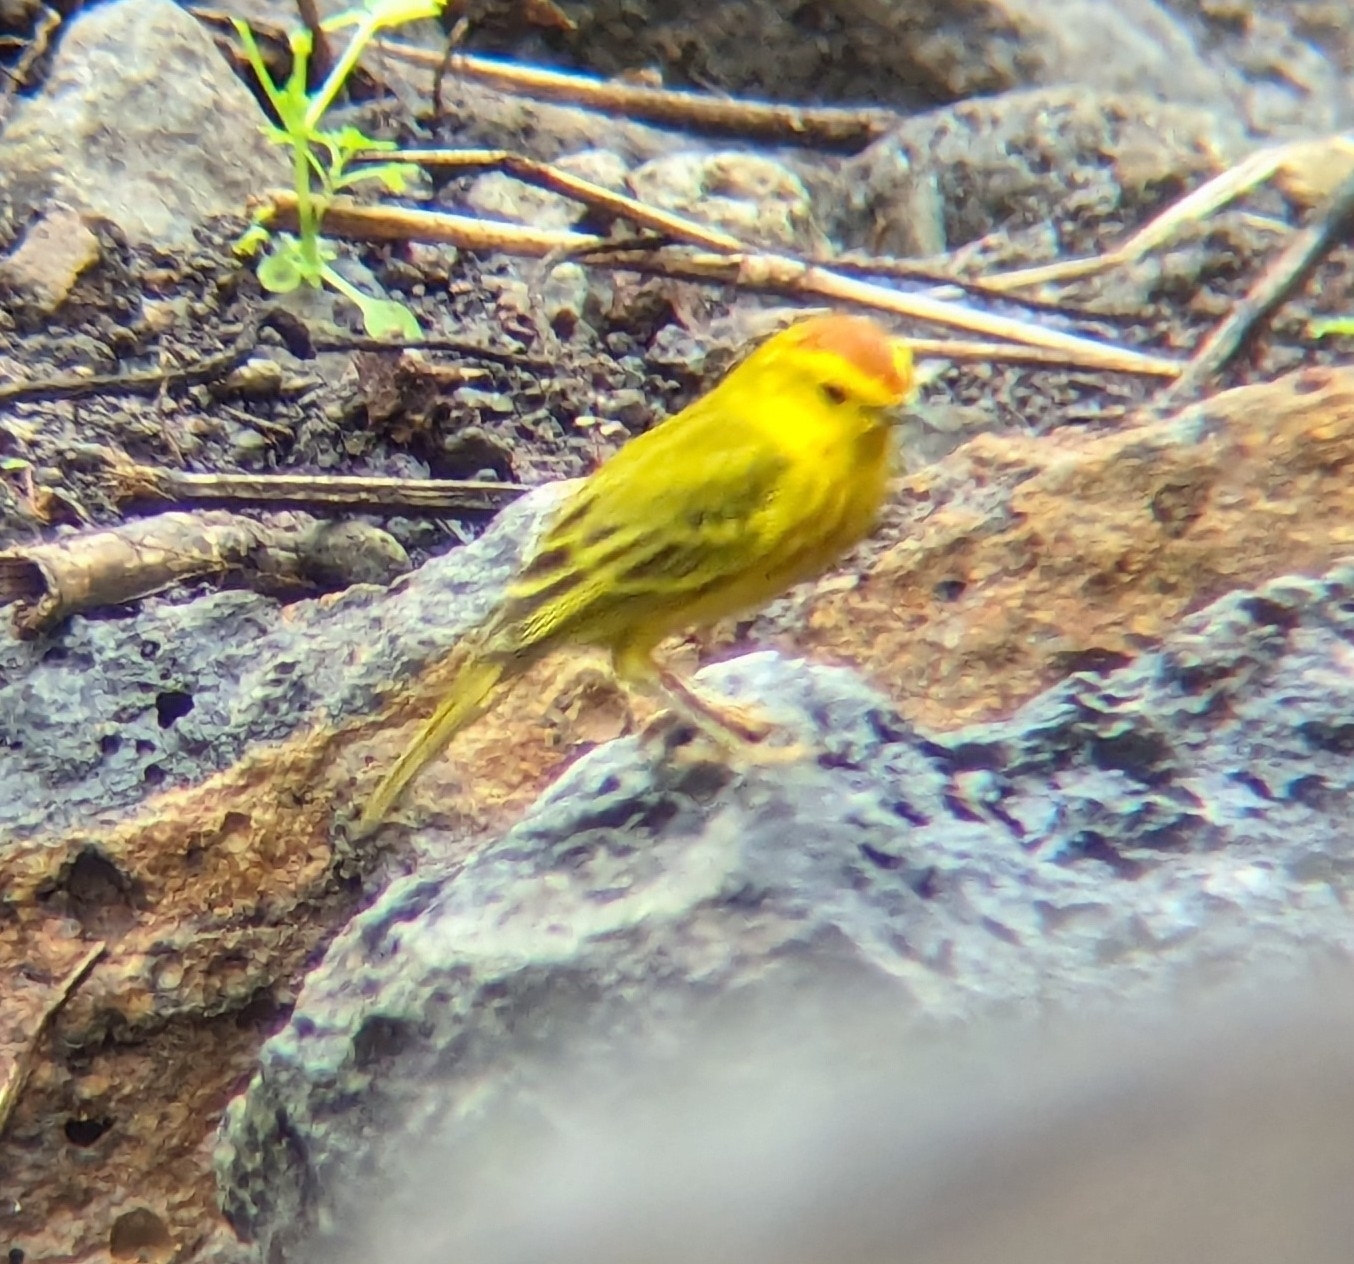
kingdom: Animalia
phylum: Chordata
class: Aves
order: Passeriformes
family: Parulidae
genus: Setophaga
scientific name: Setophaga petechia
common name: Yellow warbler
